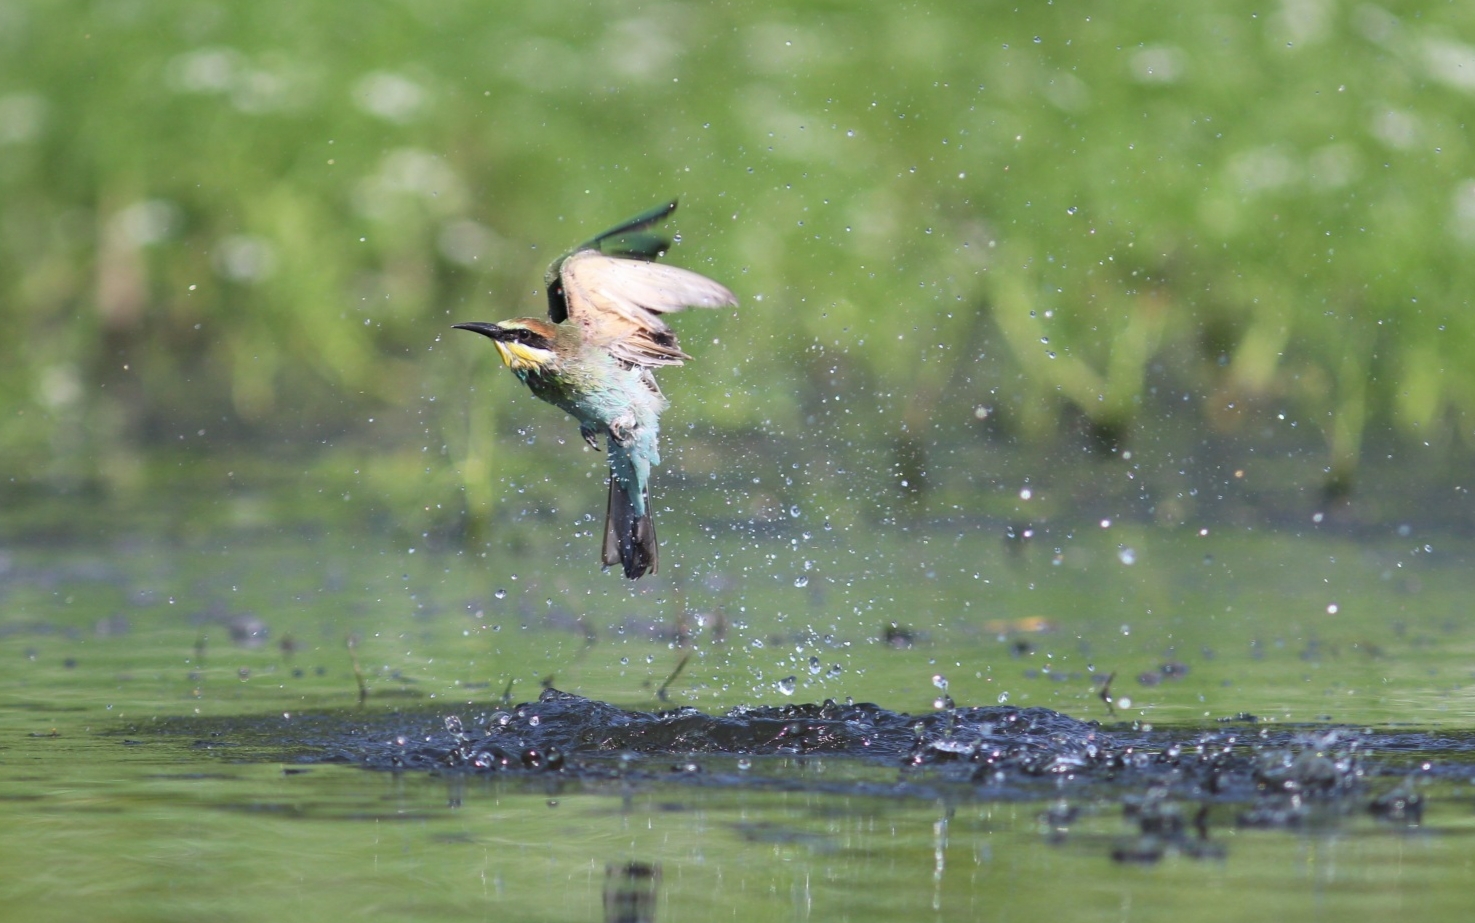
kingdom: Animalia
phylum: Chordata
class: Aves
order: Coraciiformes
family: Meropidae
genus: Merops
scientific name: Merops apiaster
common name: European bee-eater
